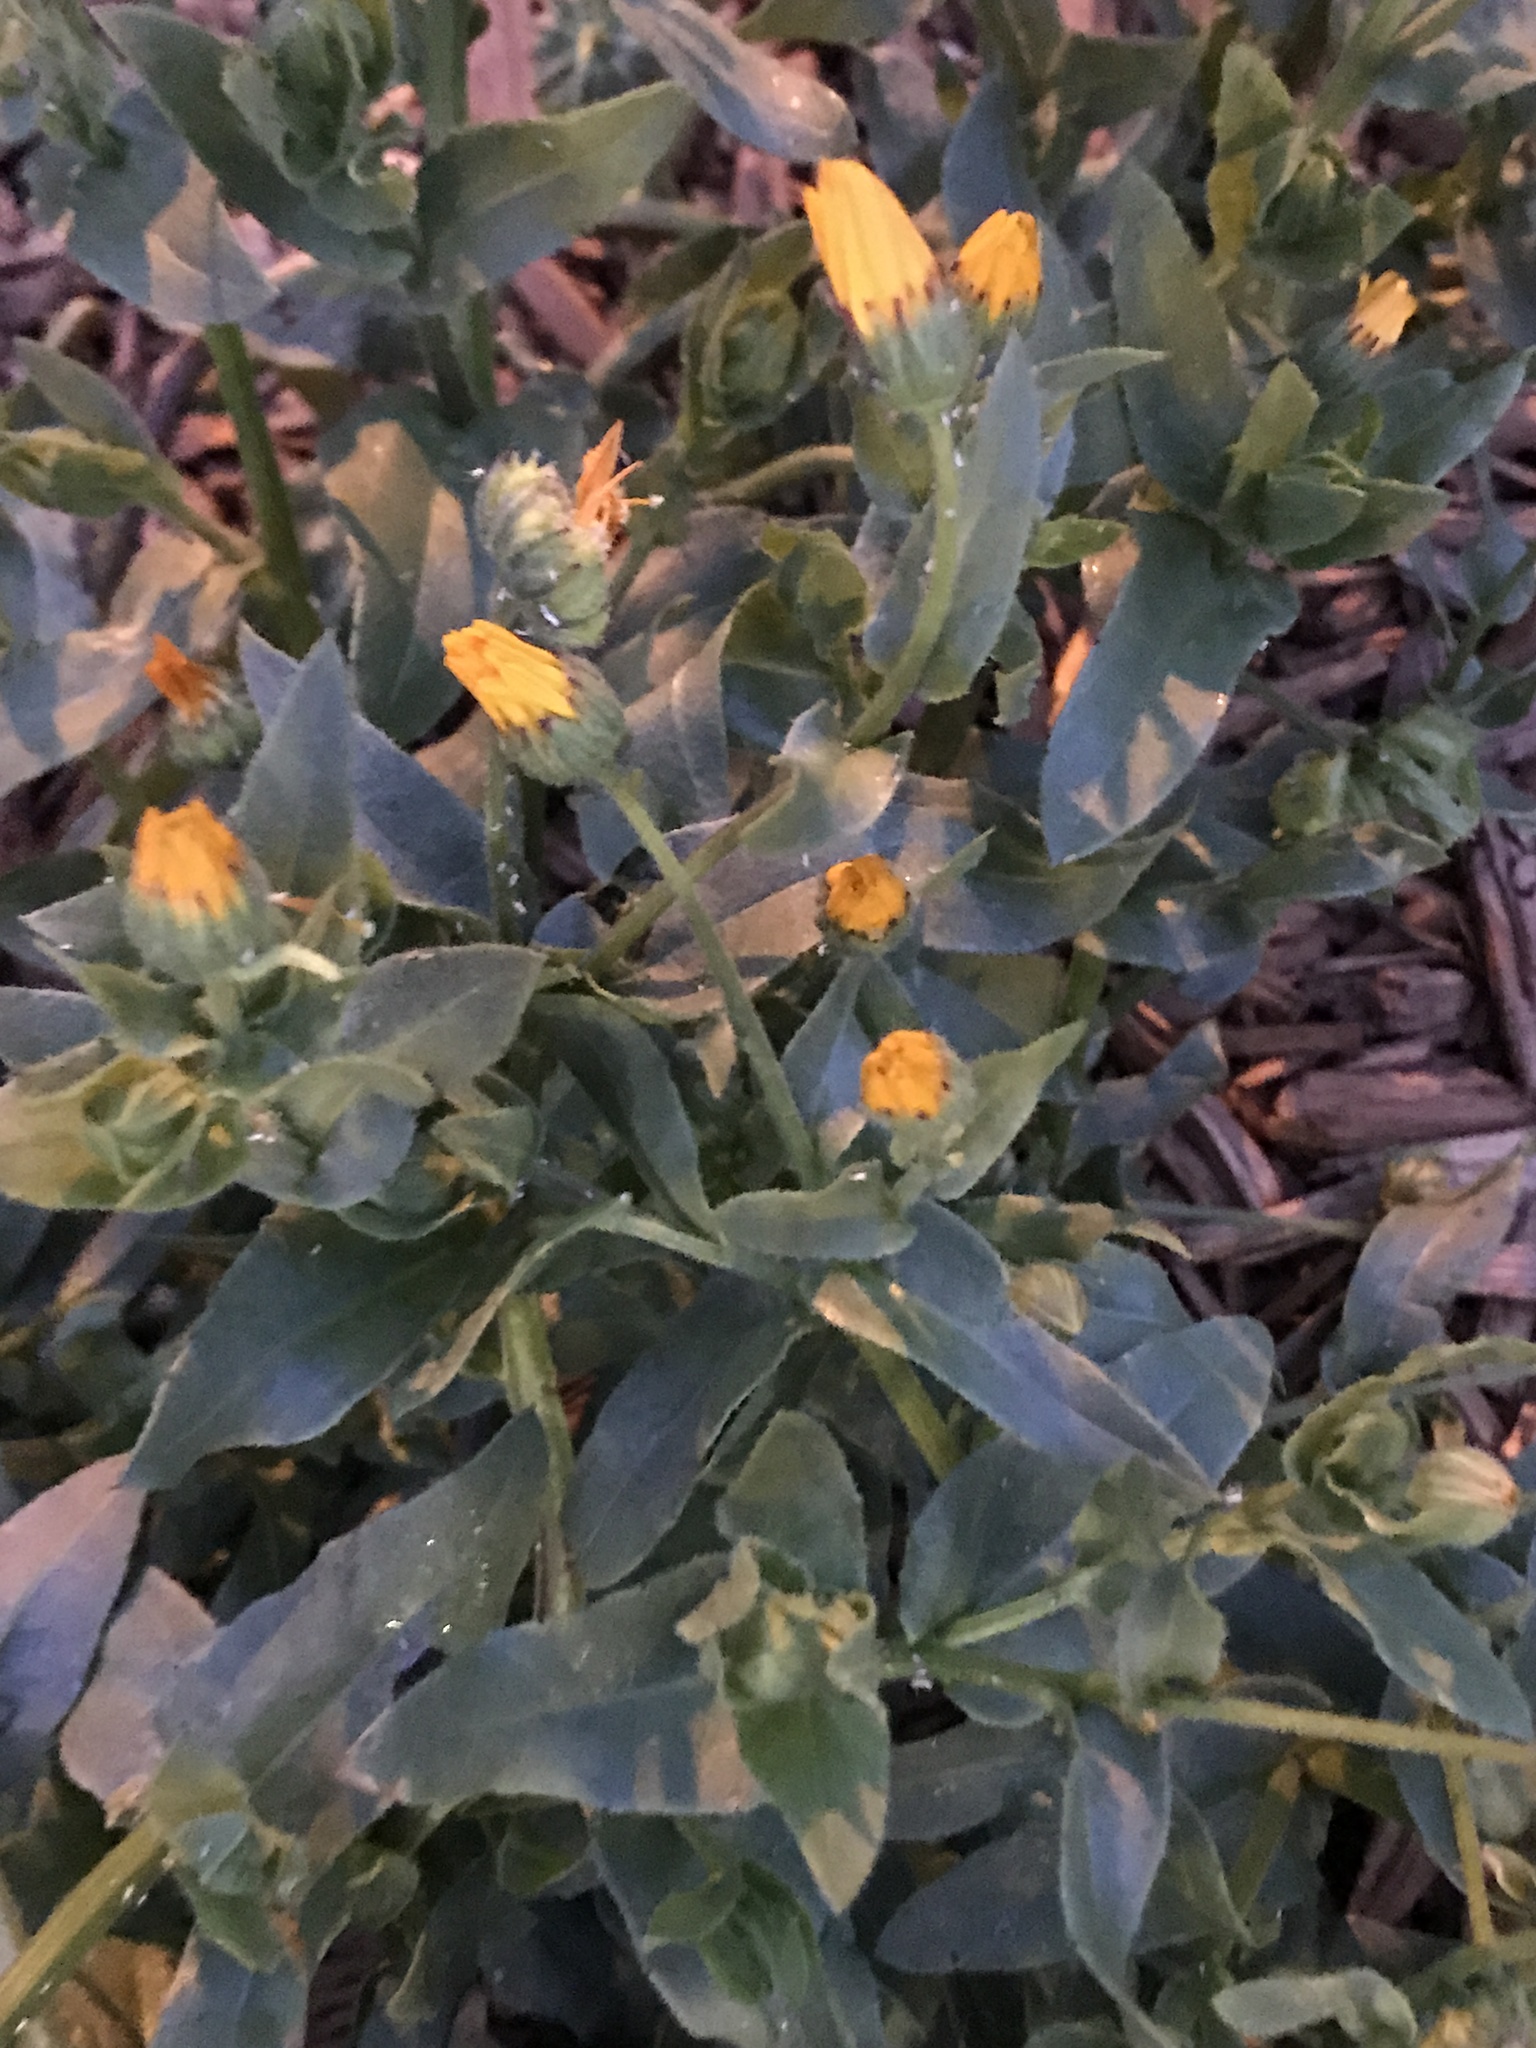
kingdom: Plantae
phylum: Tracheophyta
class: Magnoliopsida
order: Asterales
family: Asteraceae
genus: Calendula
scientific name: Calendula arvensis
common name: Field marigold
